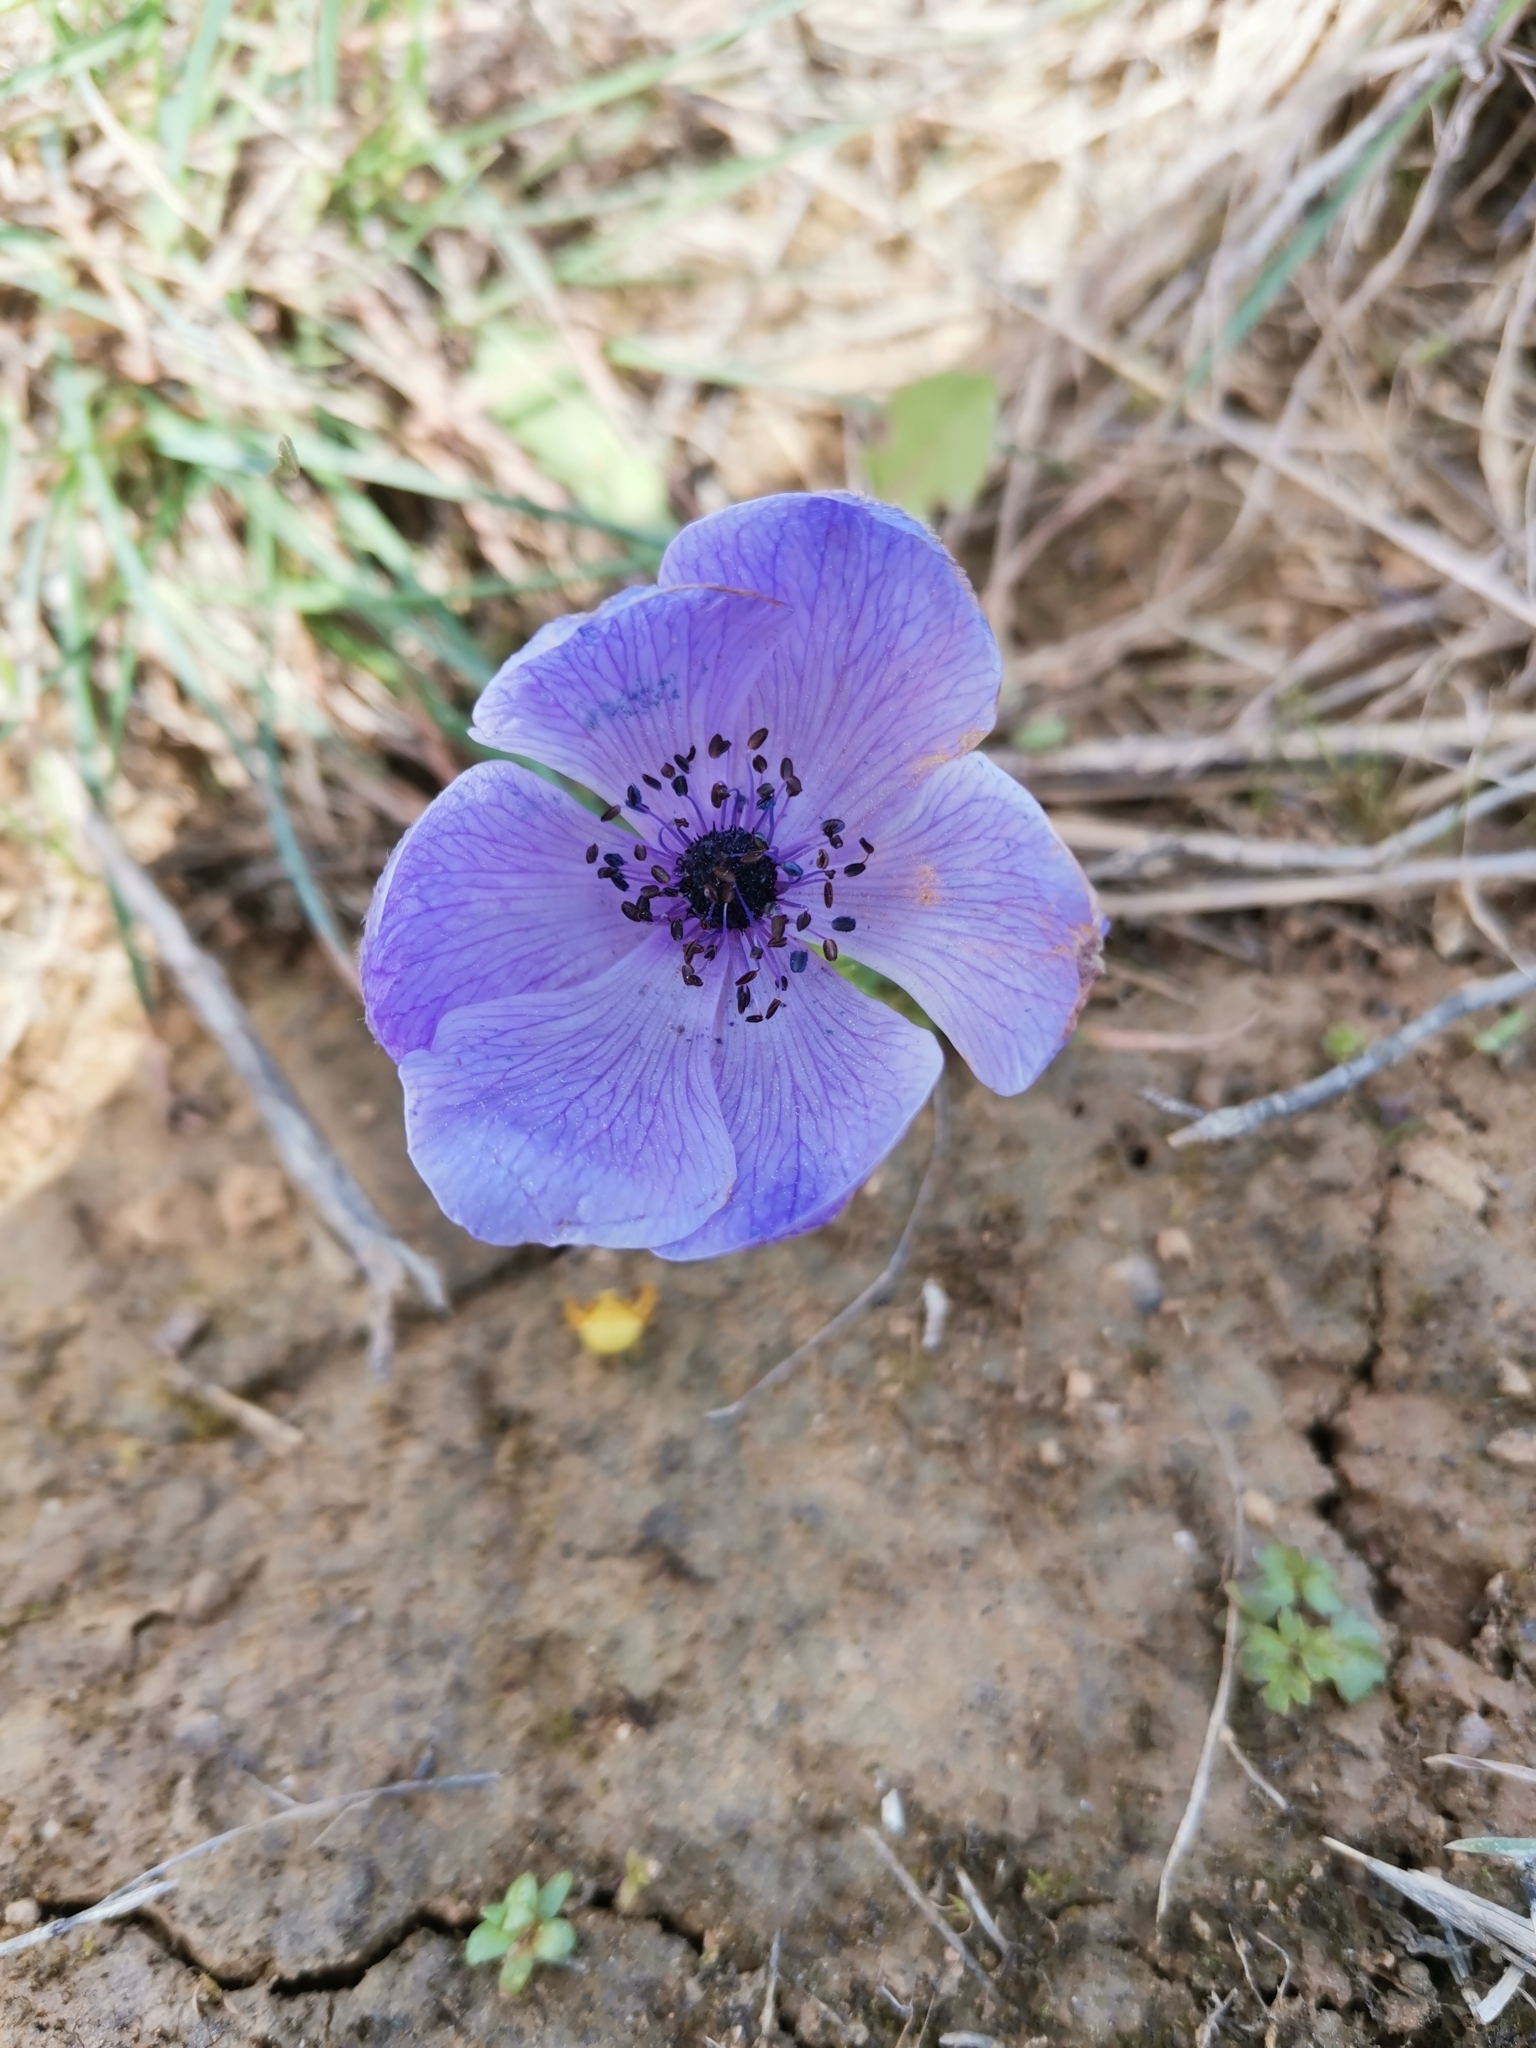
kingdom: Plantae
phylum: Tracheophyta
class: Magnoliopsida
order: Ranunculales
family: Ranunculaceae
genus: Anemone
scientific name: Anemone coronaria
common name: Poppy anemone
